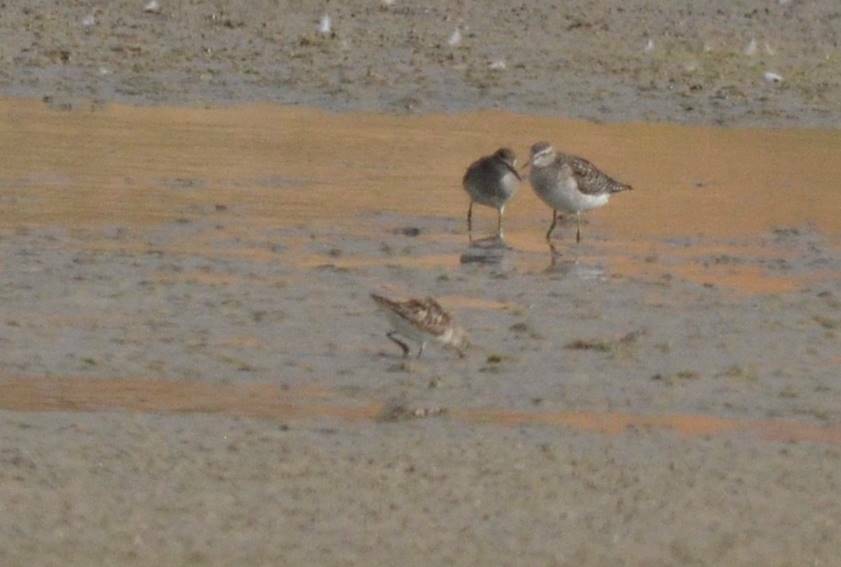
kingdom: Animalia
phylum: Chordata
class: Aves
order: Charadriiformes
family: Scolopacidae
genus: Calidris
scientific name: Calidris minuta
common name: Little stint
